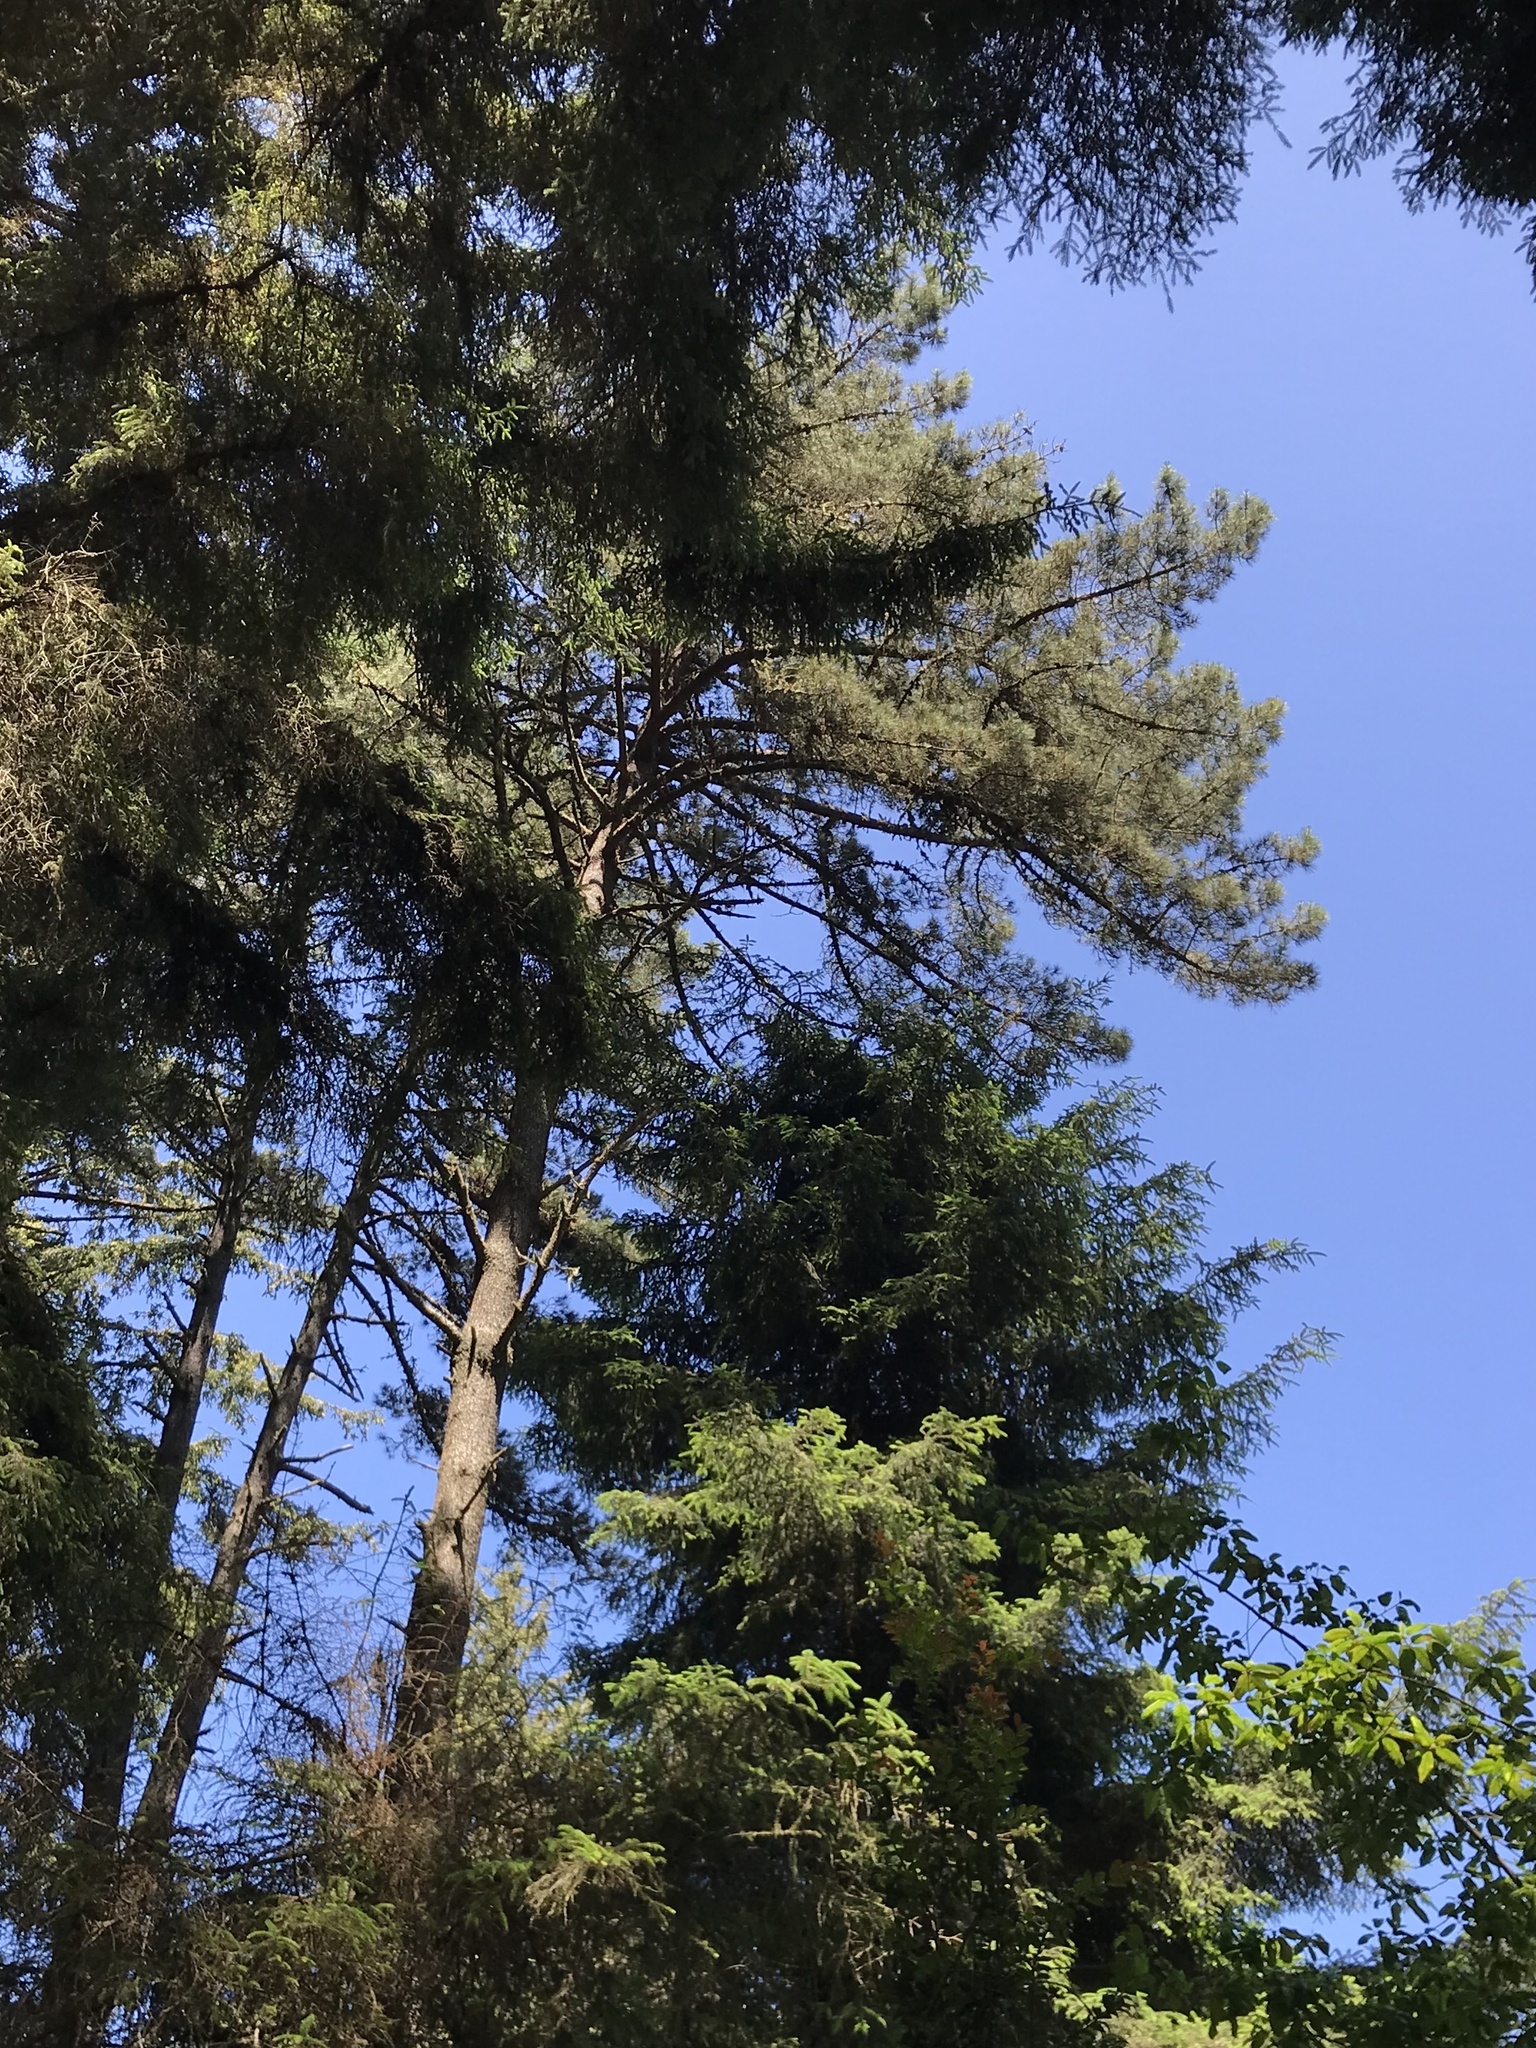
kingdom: Plantae
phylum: Tracheophyta
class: Pinopsida
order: Pinales
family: Pinaceae
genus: Pinus
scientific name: Pinus muricata
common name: Bishop pine
